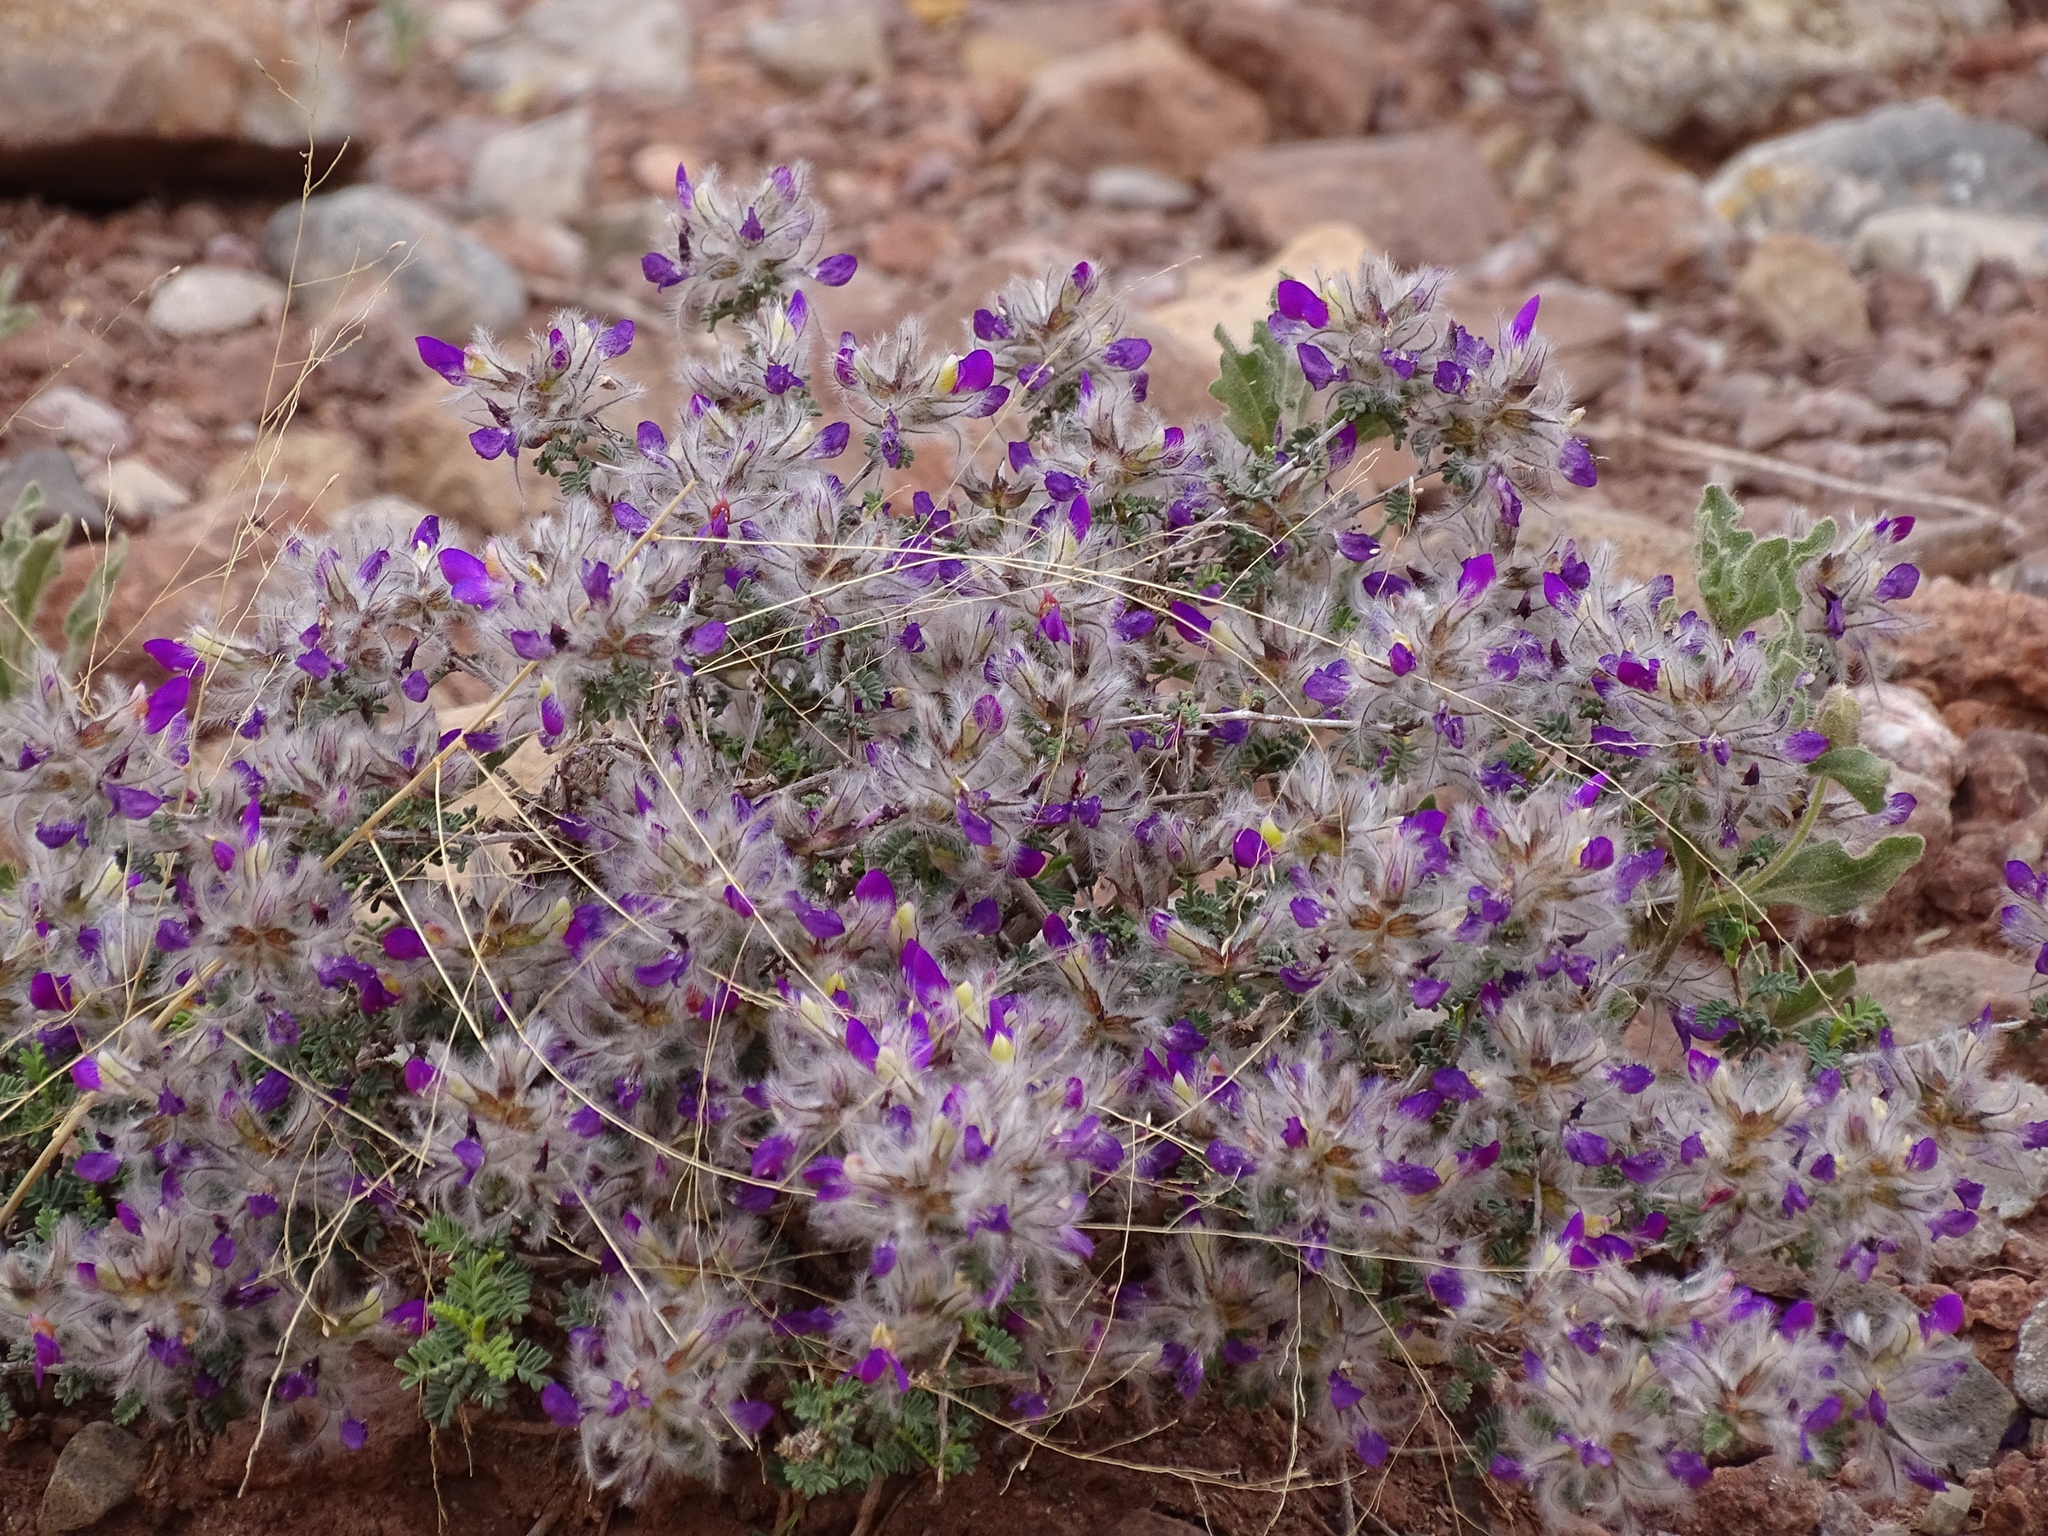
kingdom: Plantae
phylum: Tracheophyta
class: Magnoliopsida
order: Fabales
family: Fabaceae
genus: Dalea
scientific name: Dalea formosa
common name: Feather-plume dalea
